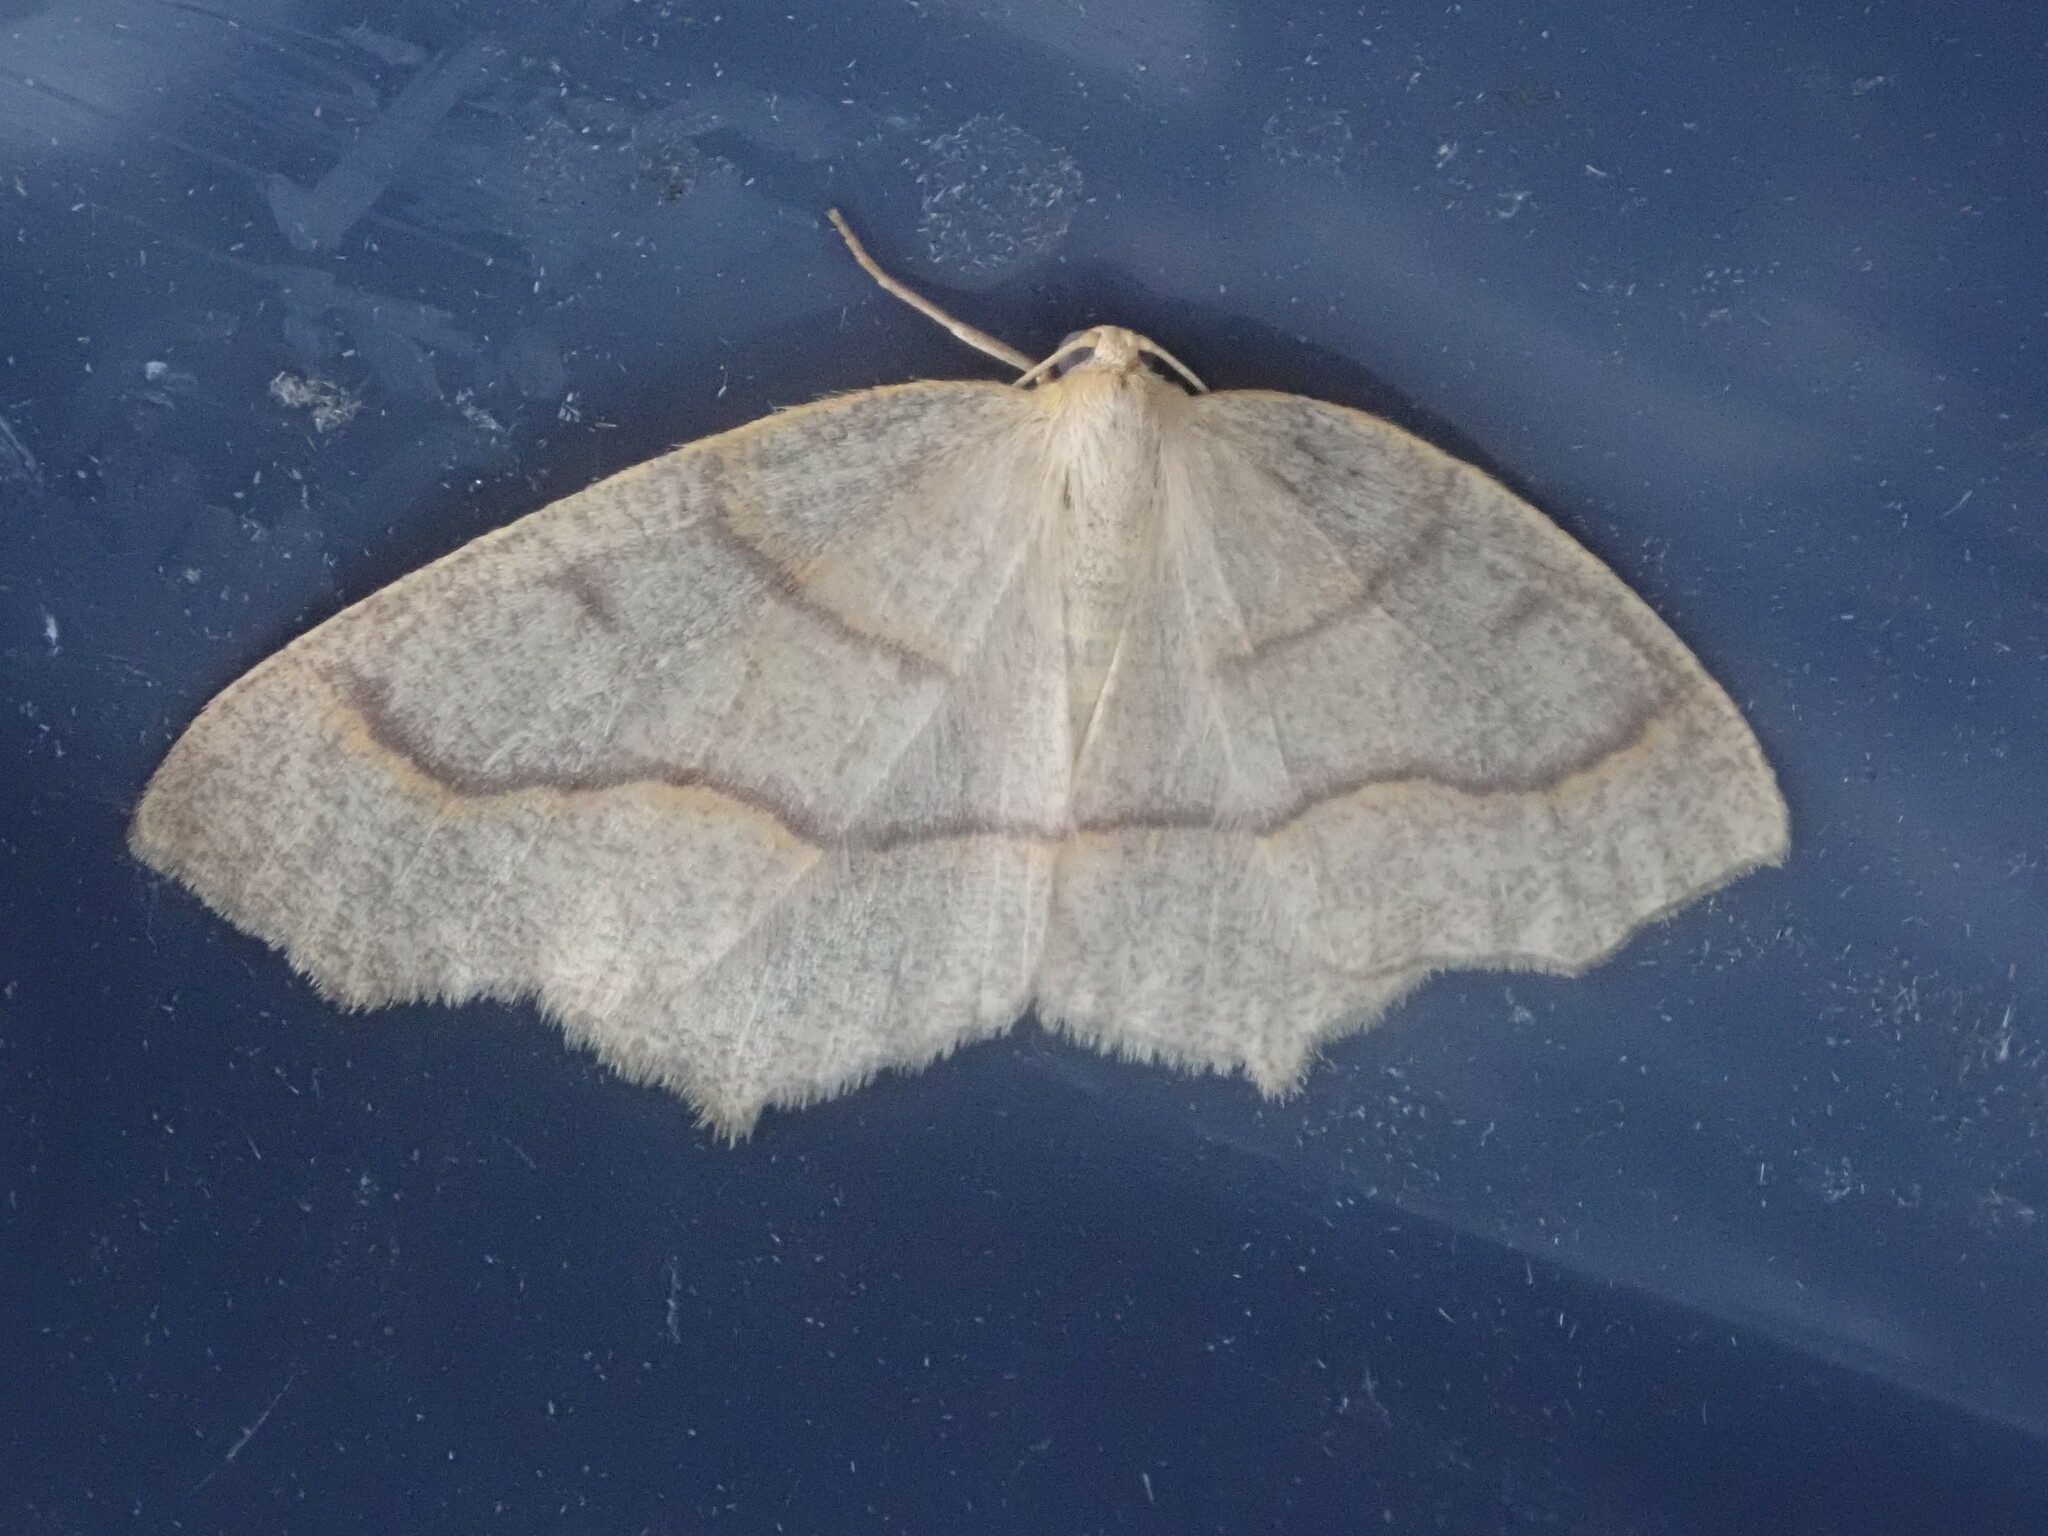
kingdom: Animalia
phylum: Arthropoda
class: Insecta
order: Lepidoptera
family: Geometridae
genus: Lambdina
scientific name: Lambdina fiscellaria
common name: Hemlock looper
